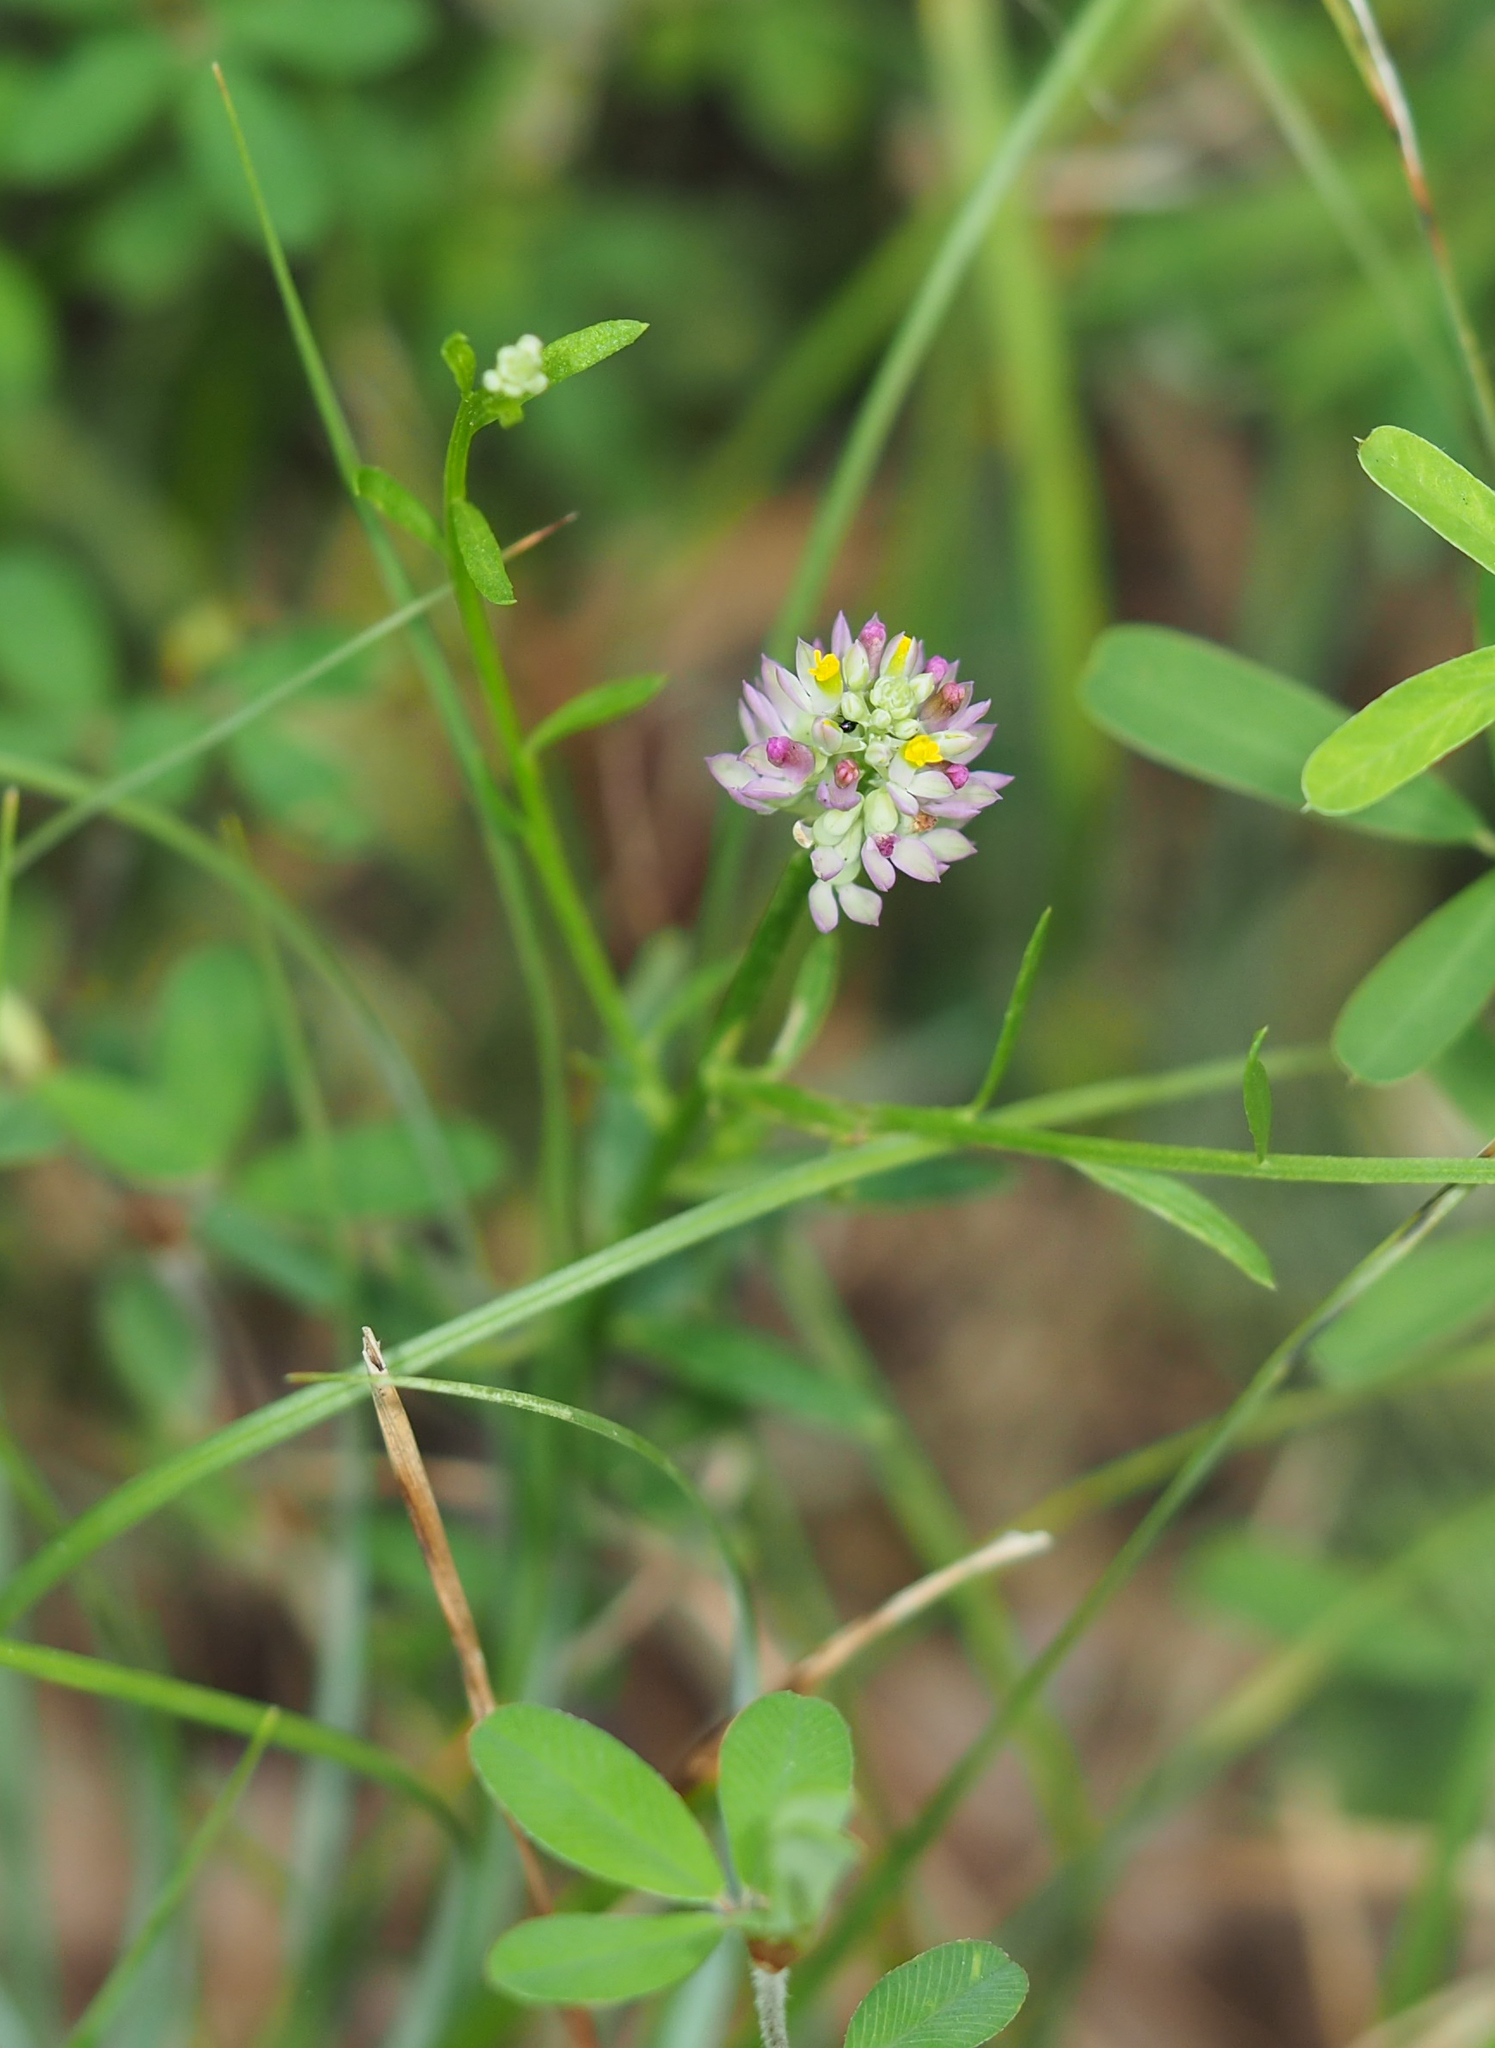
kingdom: Plantae
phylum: Tracheophyta
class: Magnoliopsida
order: Fabales
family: Polygalaceae
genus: Polygala
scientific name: Polygala mariana
